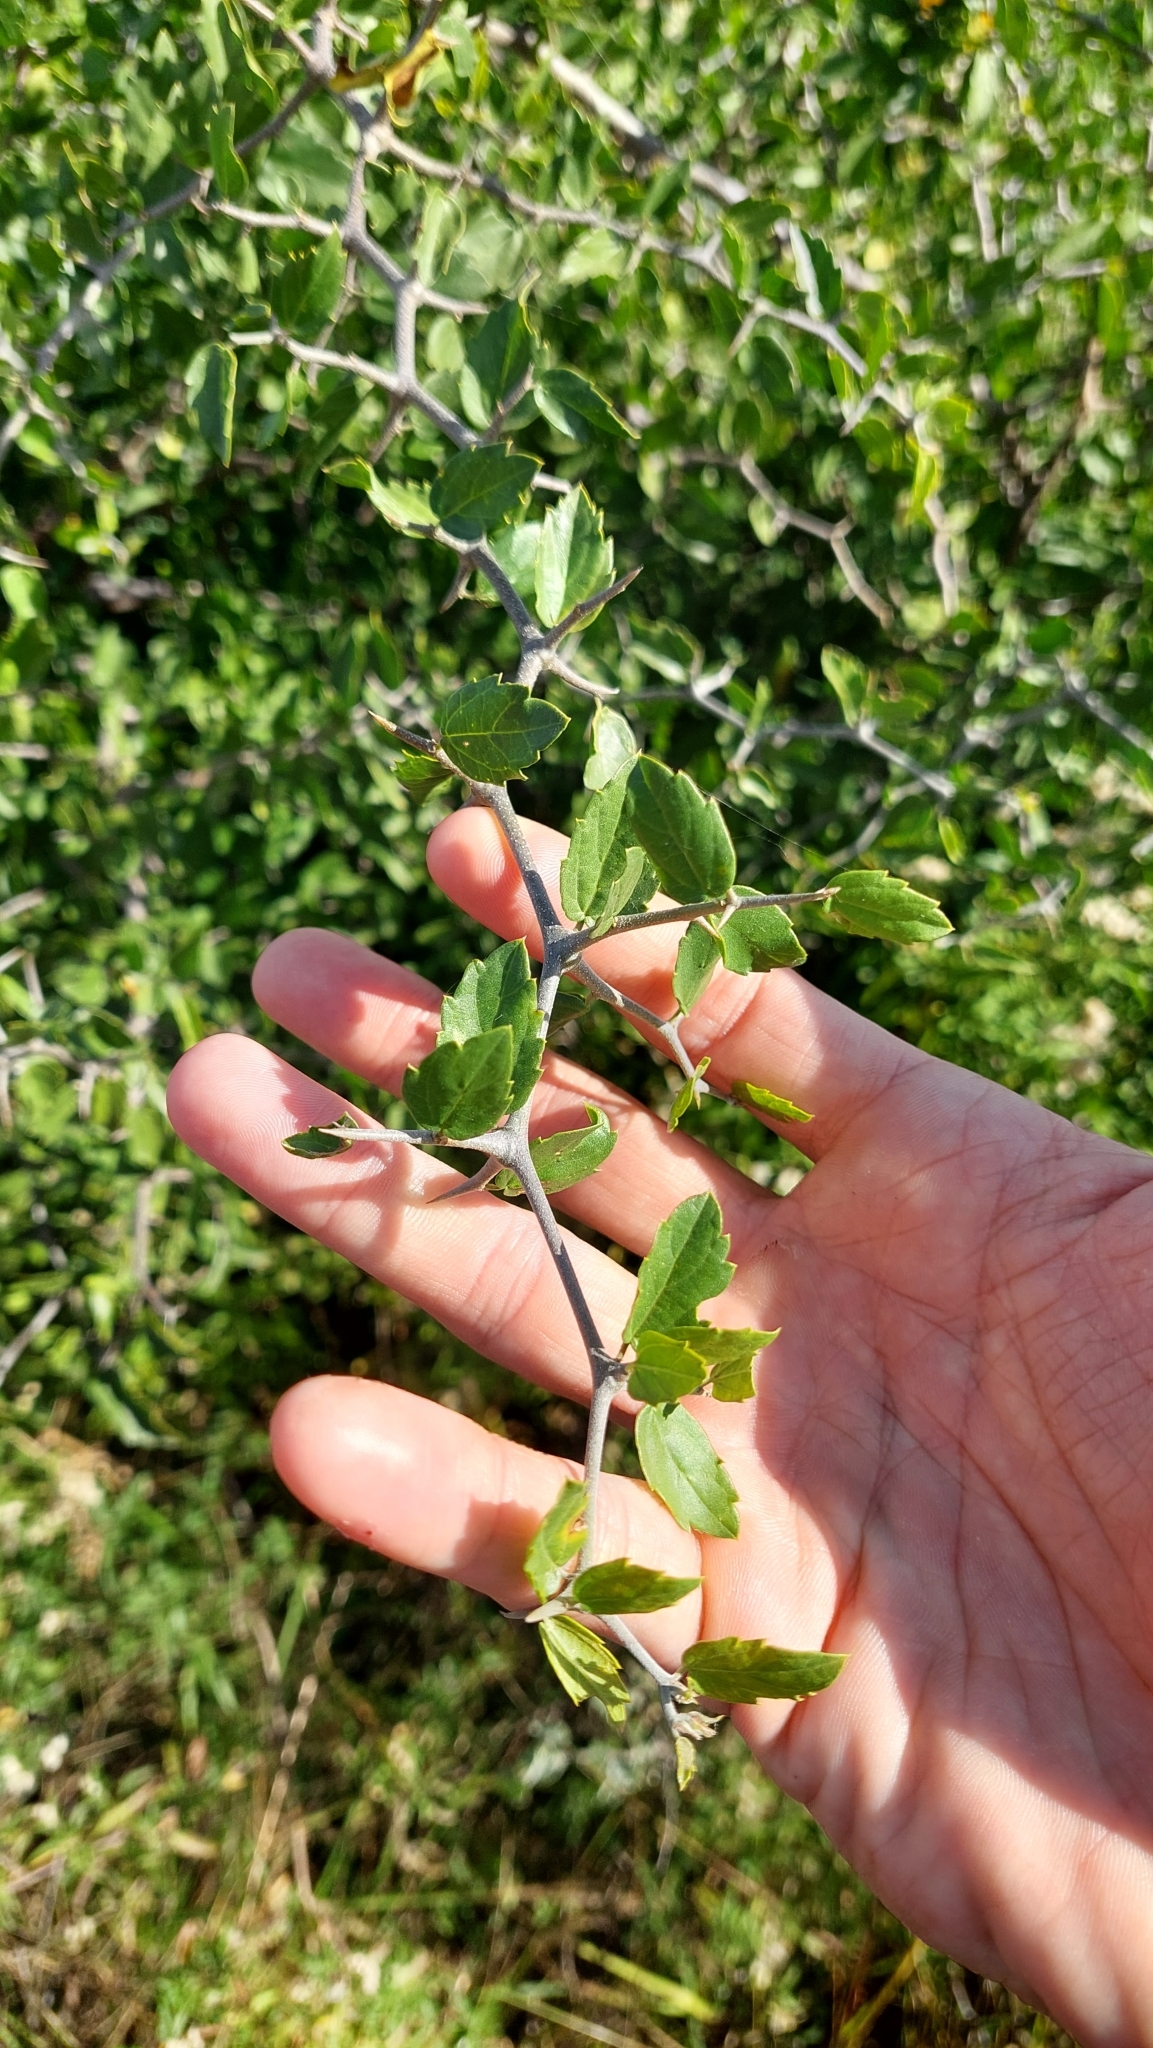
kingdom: Plantae
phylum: Tracheophyta
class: Magnoliopsida
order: Rosales
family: Cannabaceae
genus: Celtis
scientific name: Celtis pallida
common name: Desert hackberry
